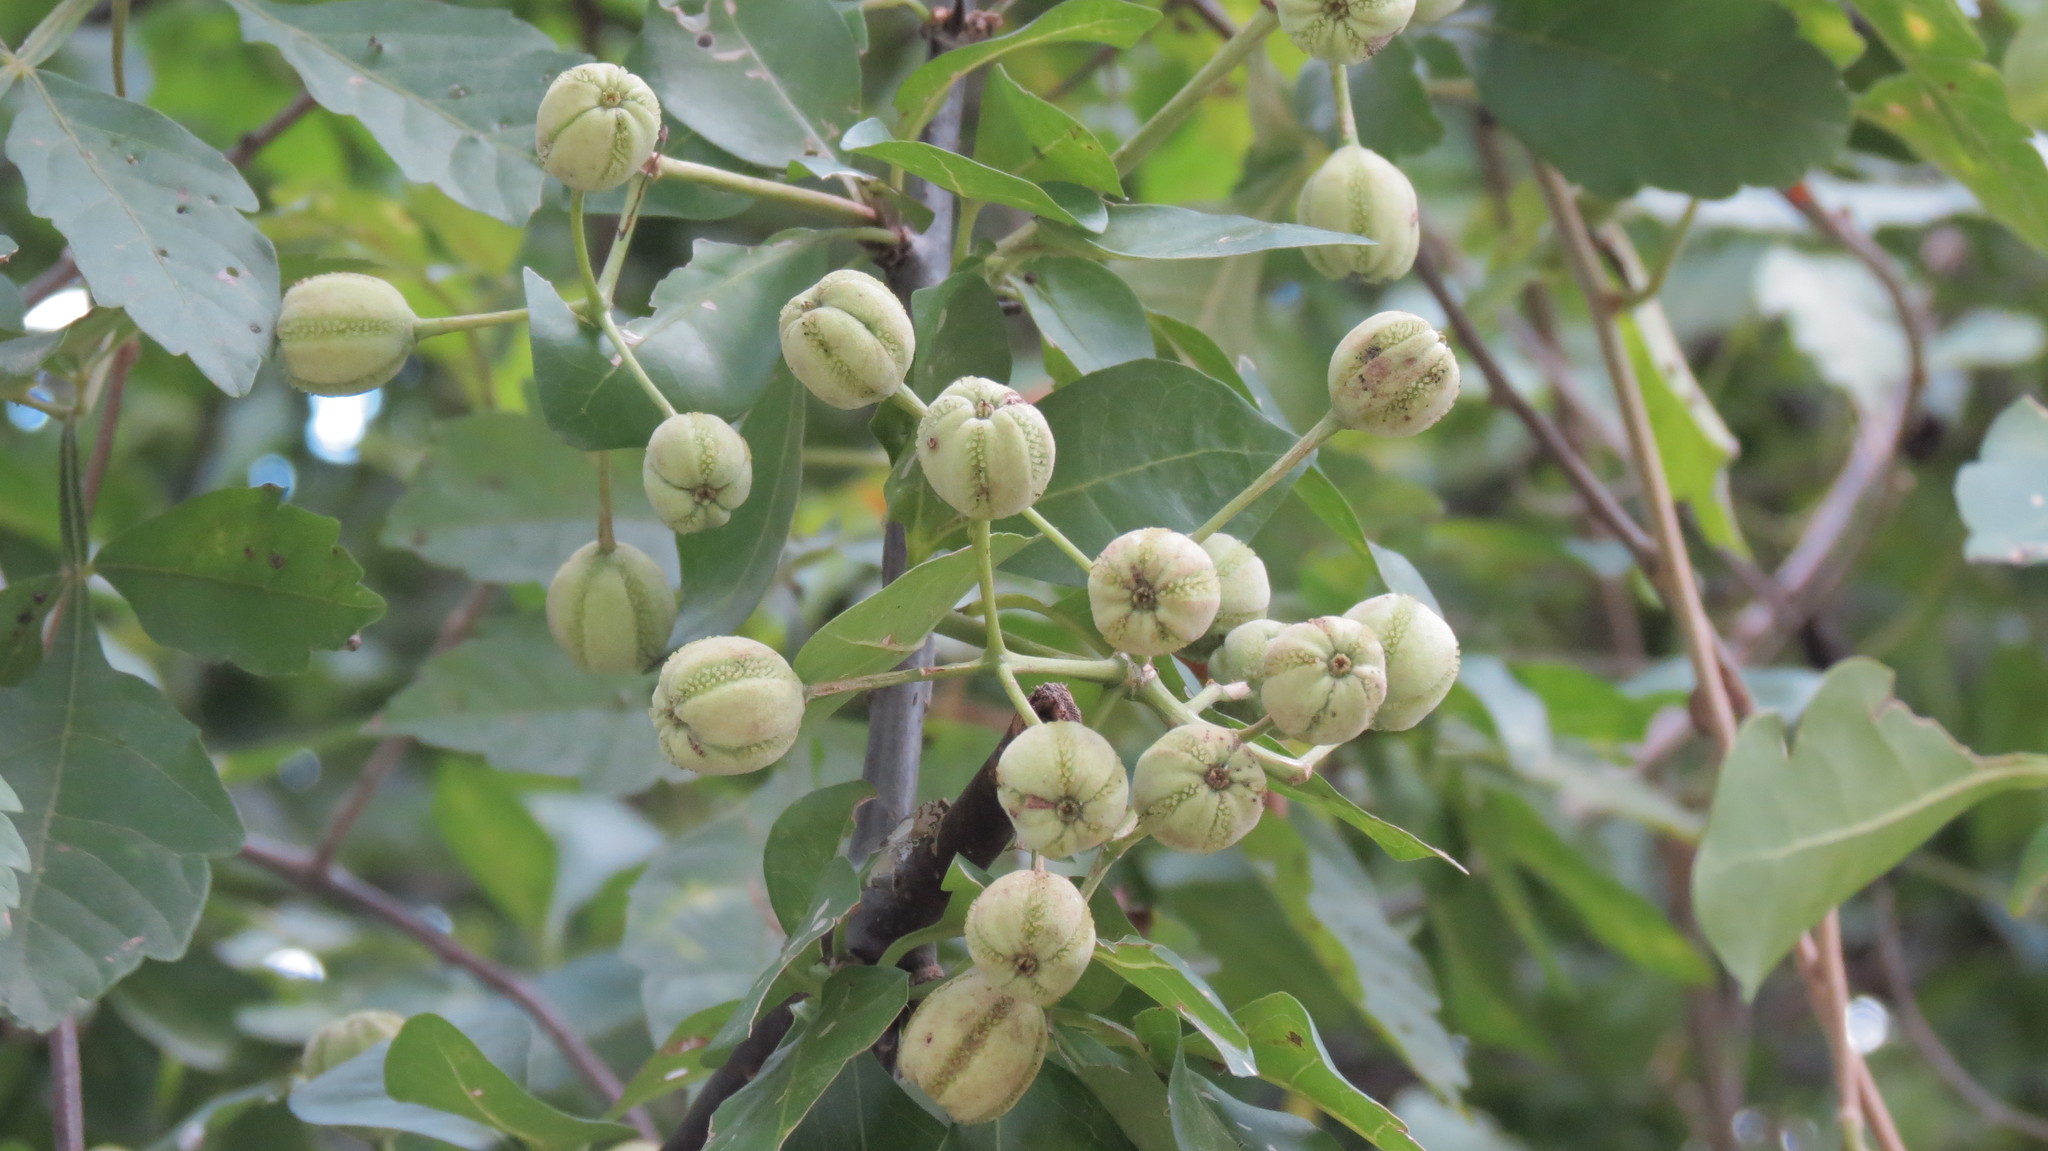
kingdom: Plantae
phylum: Tracheophyta
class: Magnoliopsida
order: Caryophyllales
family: Nyctaginaceae
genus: Pisonia
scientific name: Pisonia macranthocarpa
